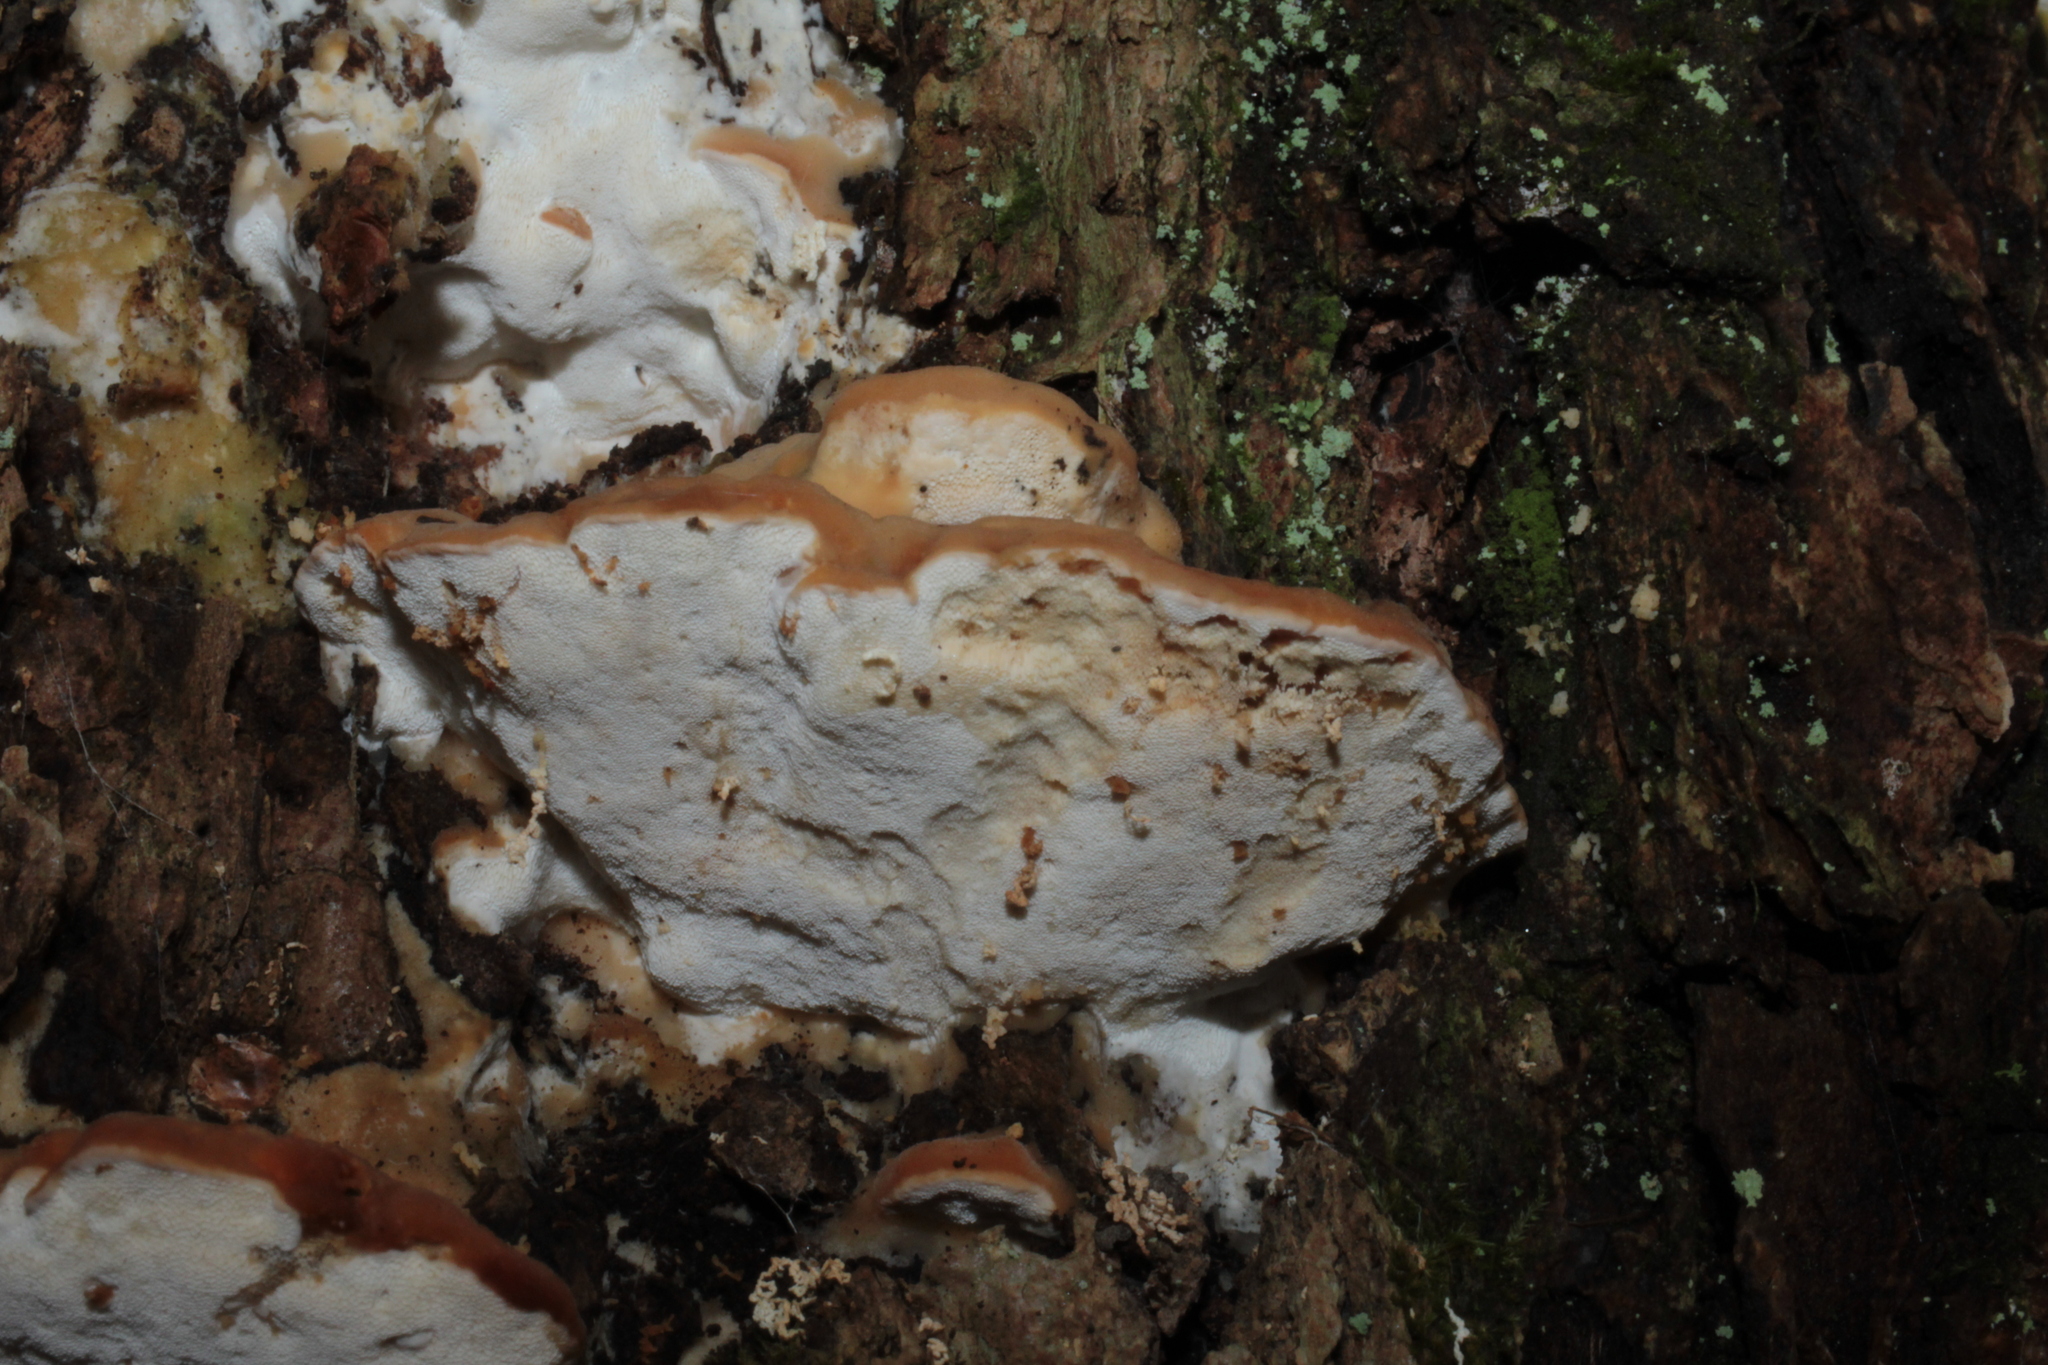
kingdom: Fungi
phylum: Basidiomycota
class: Agaricomycetes
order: Polyporales
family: Fomitopsidaceae
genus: Niveoporofomes
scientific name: Niveoporofomes spraguei
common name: Green cheese polypore
